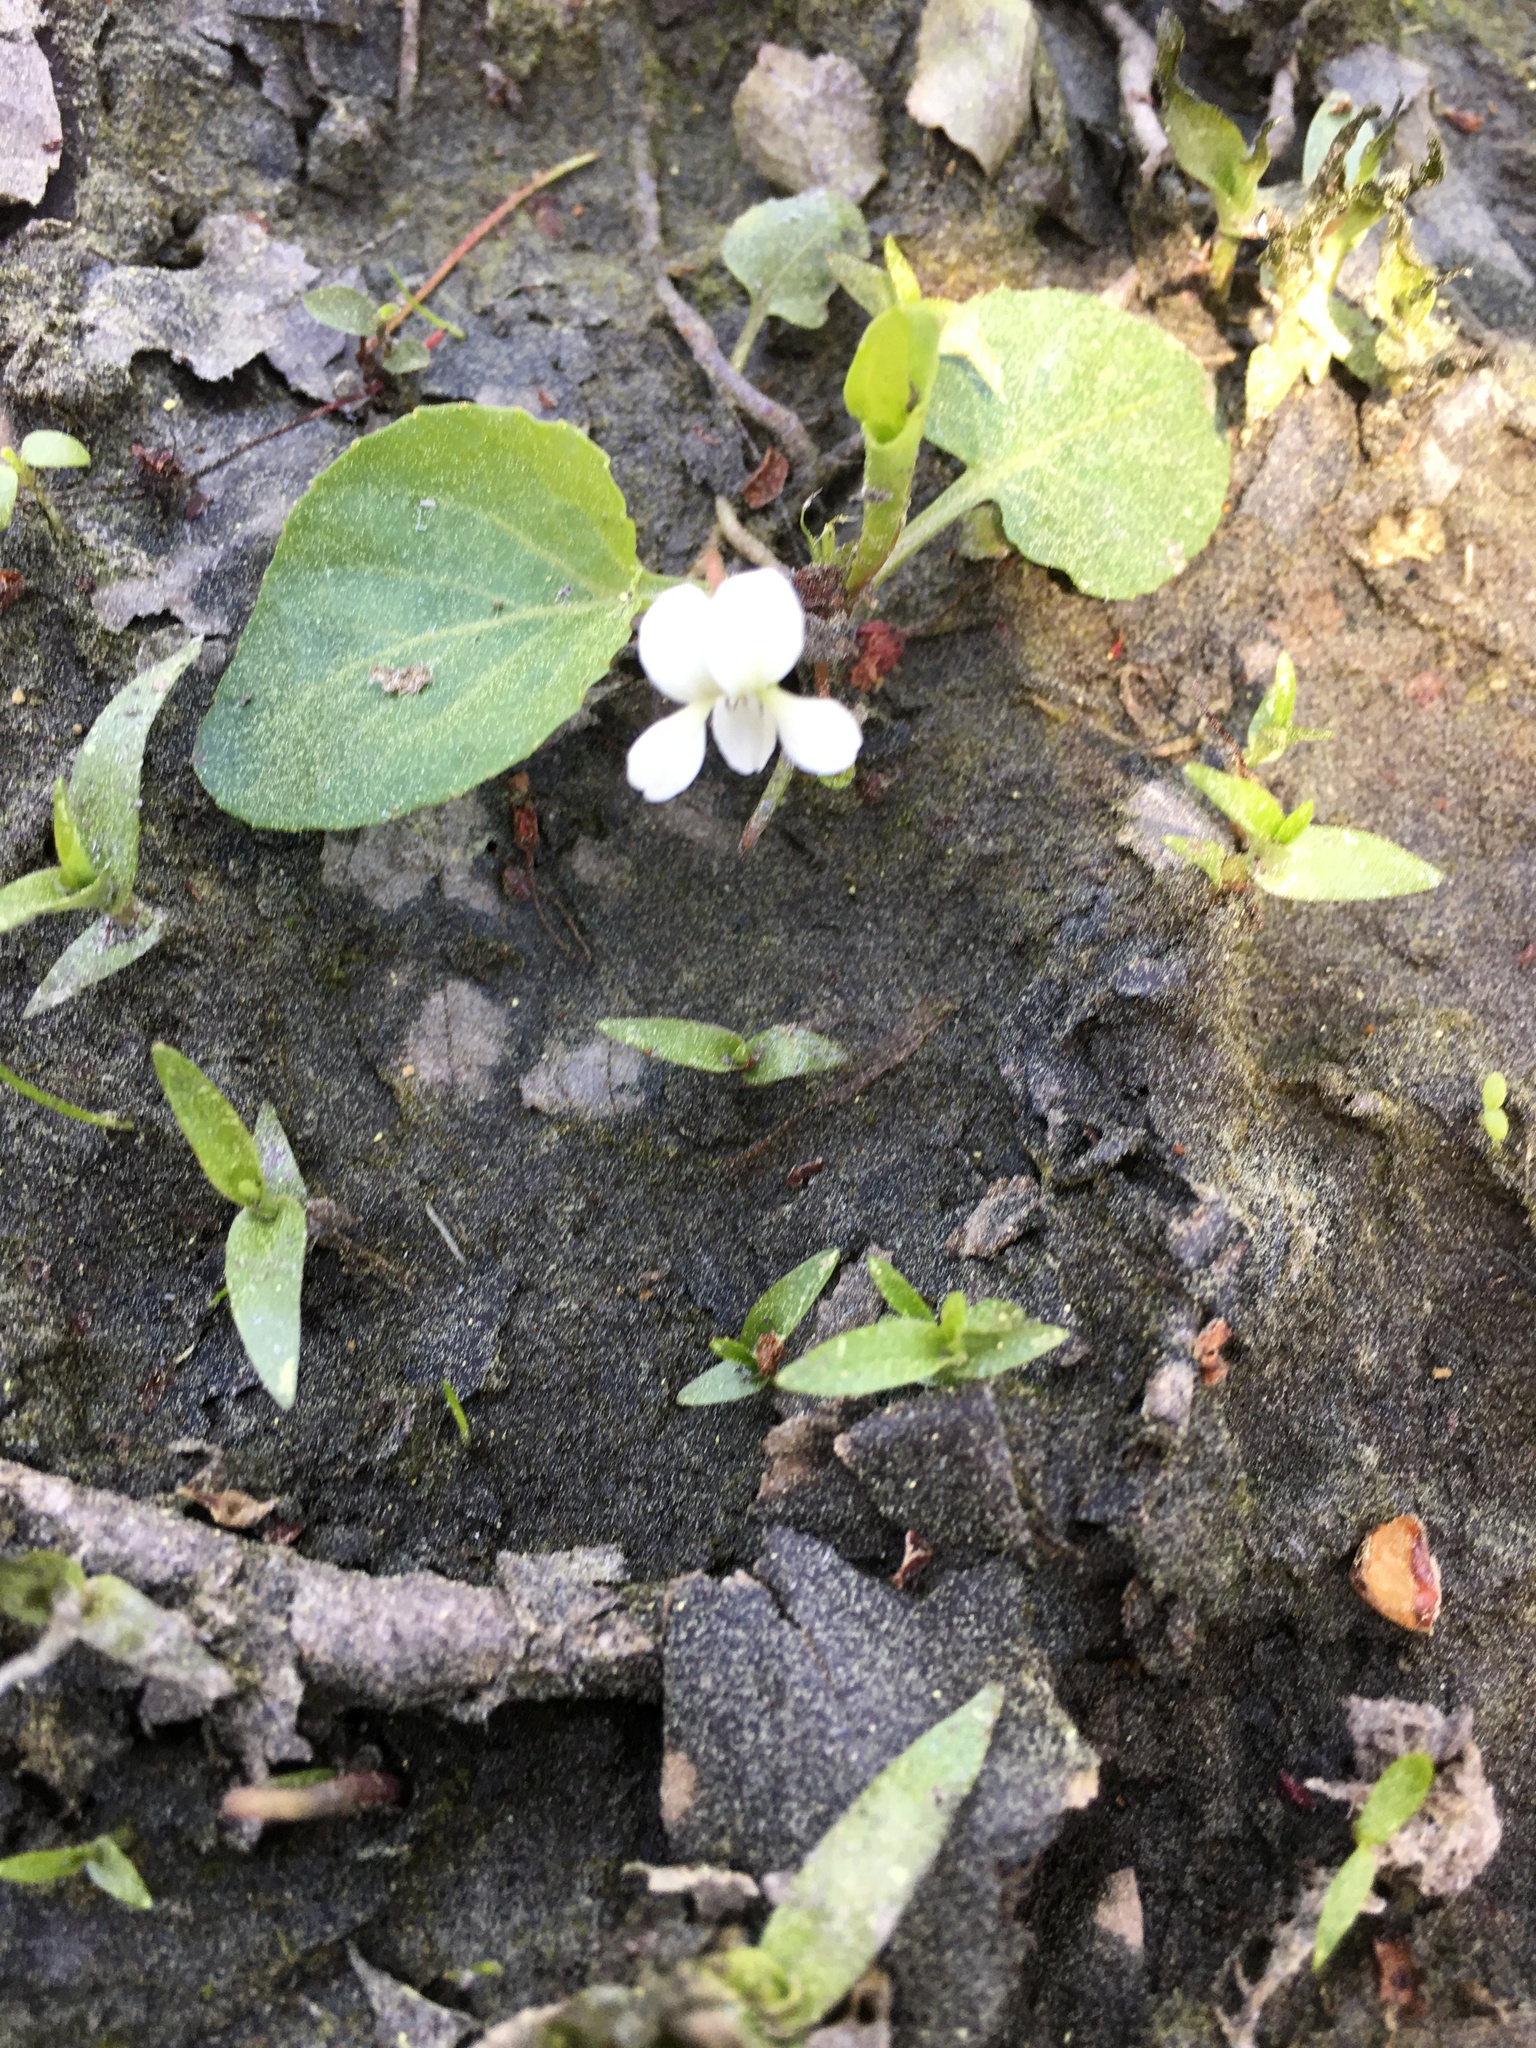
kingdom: Plantae
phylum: Tracheophyta
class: Magnoliopsida
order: Malpighiales
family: Violaceae
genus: Viola
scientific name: Viola primulifolia
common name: Primrose-leaf violet
